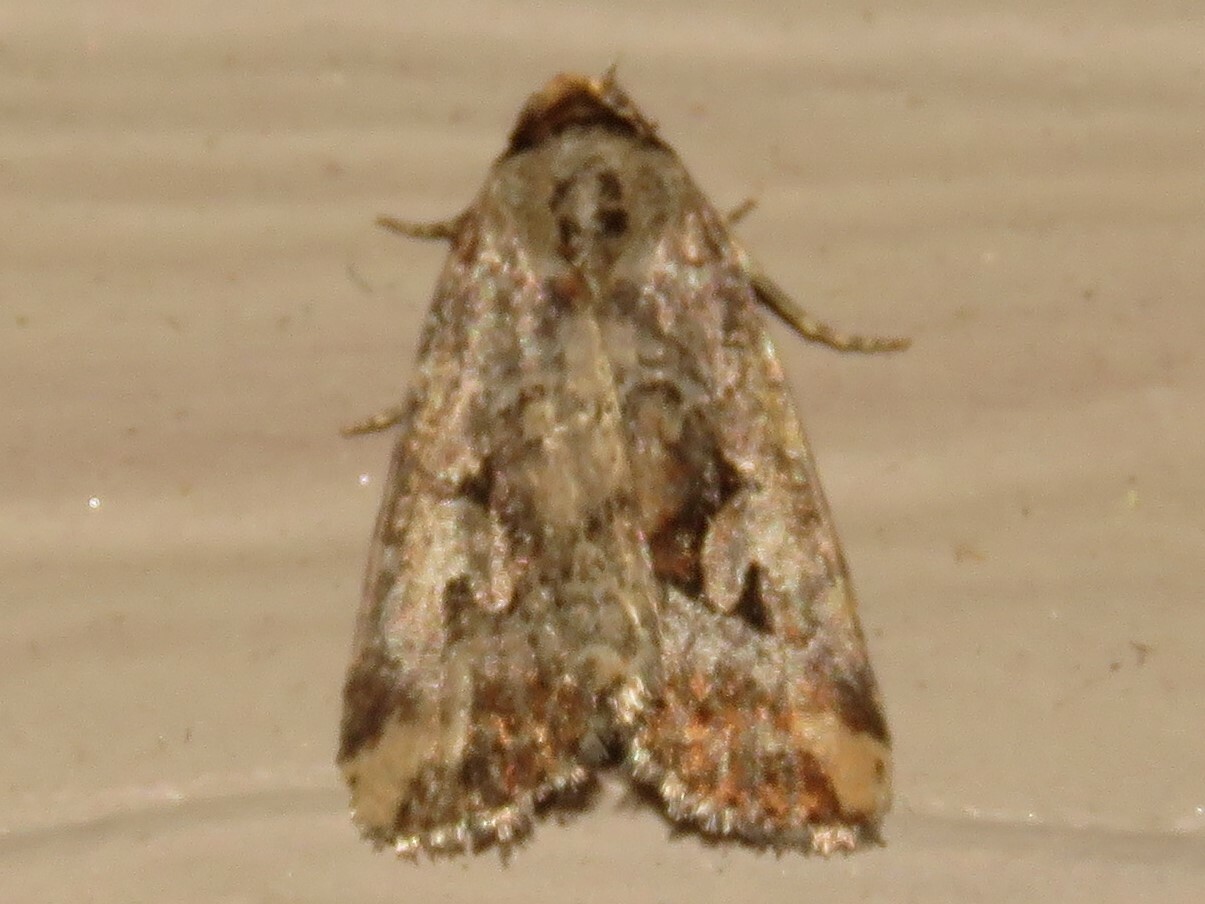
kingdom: Animalia
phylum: Arthropoda
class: Insecta
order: Lepidoptera
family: Noctuidae
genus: Elaphria
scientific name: Elaphria alapallida
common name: Pale-winged midget
